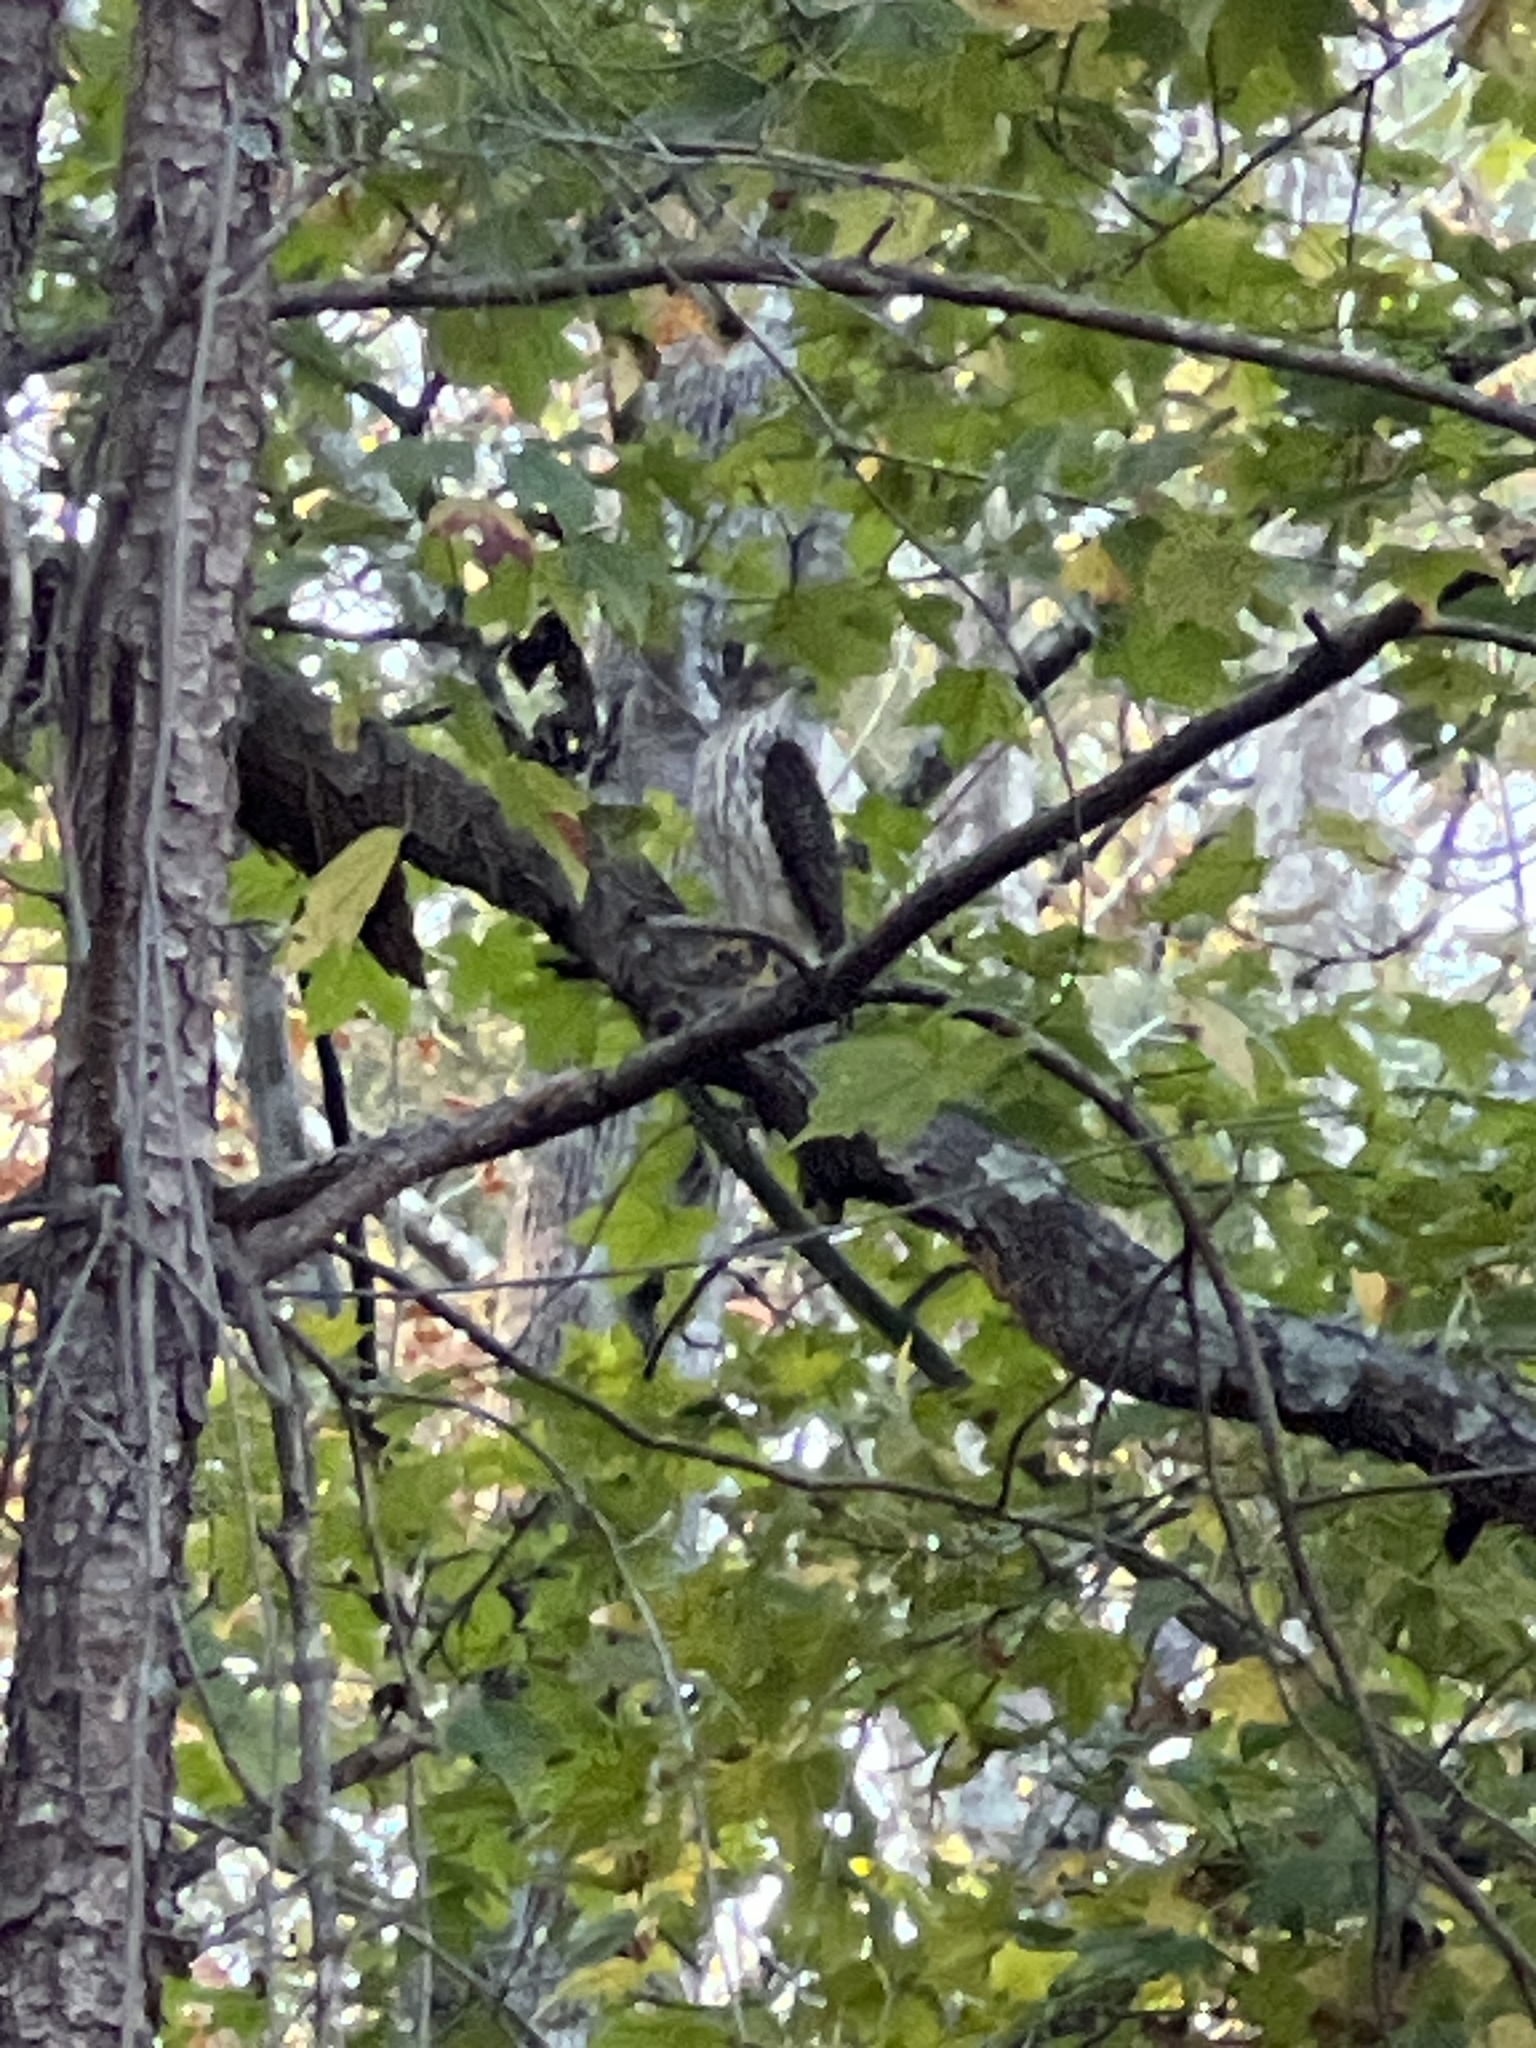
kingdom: Animalia
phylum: Chordata
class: Aves
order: Accipitriformes
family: Accipitridae
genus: Accipiter
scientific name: Accipiter cooperii
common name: Cooper's hawk
